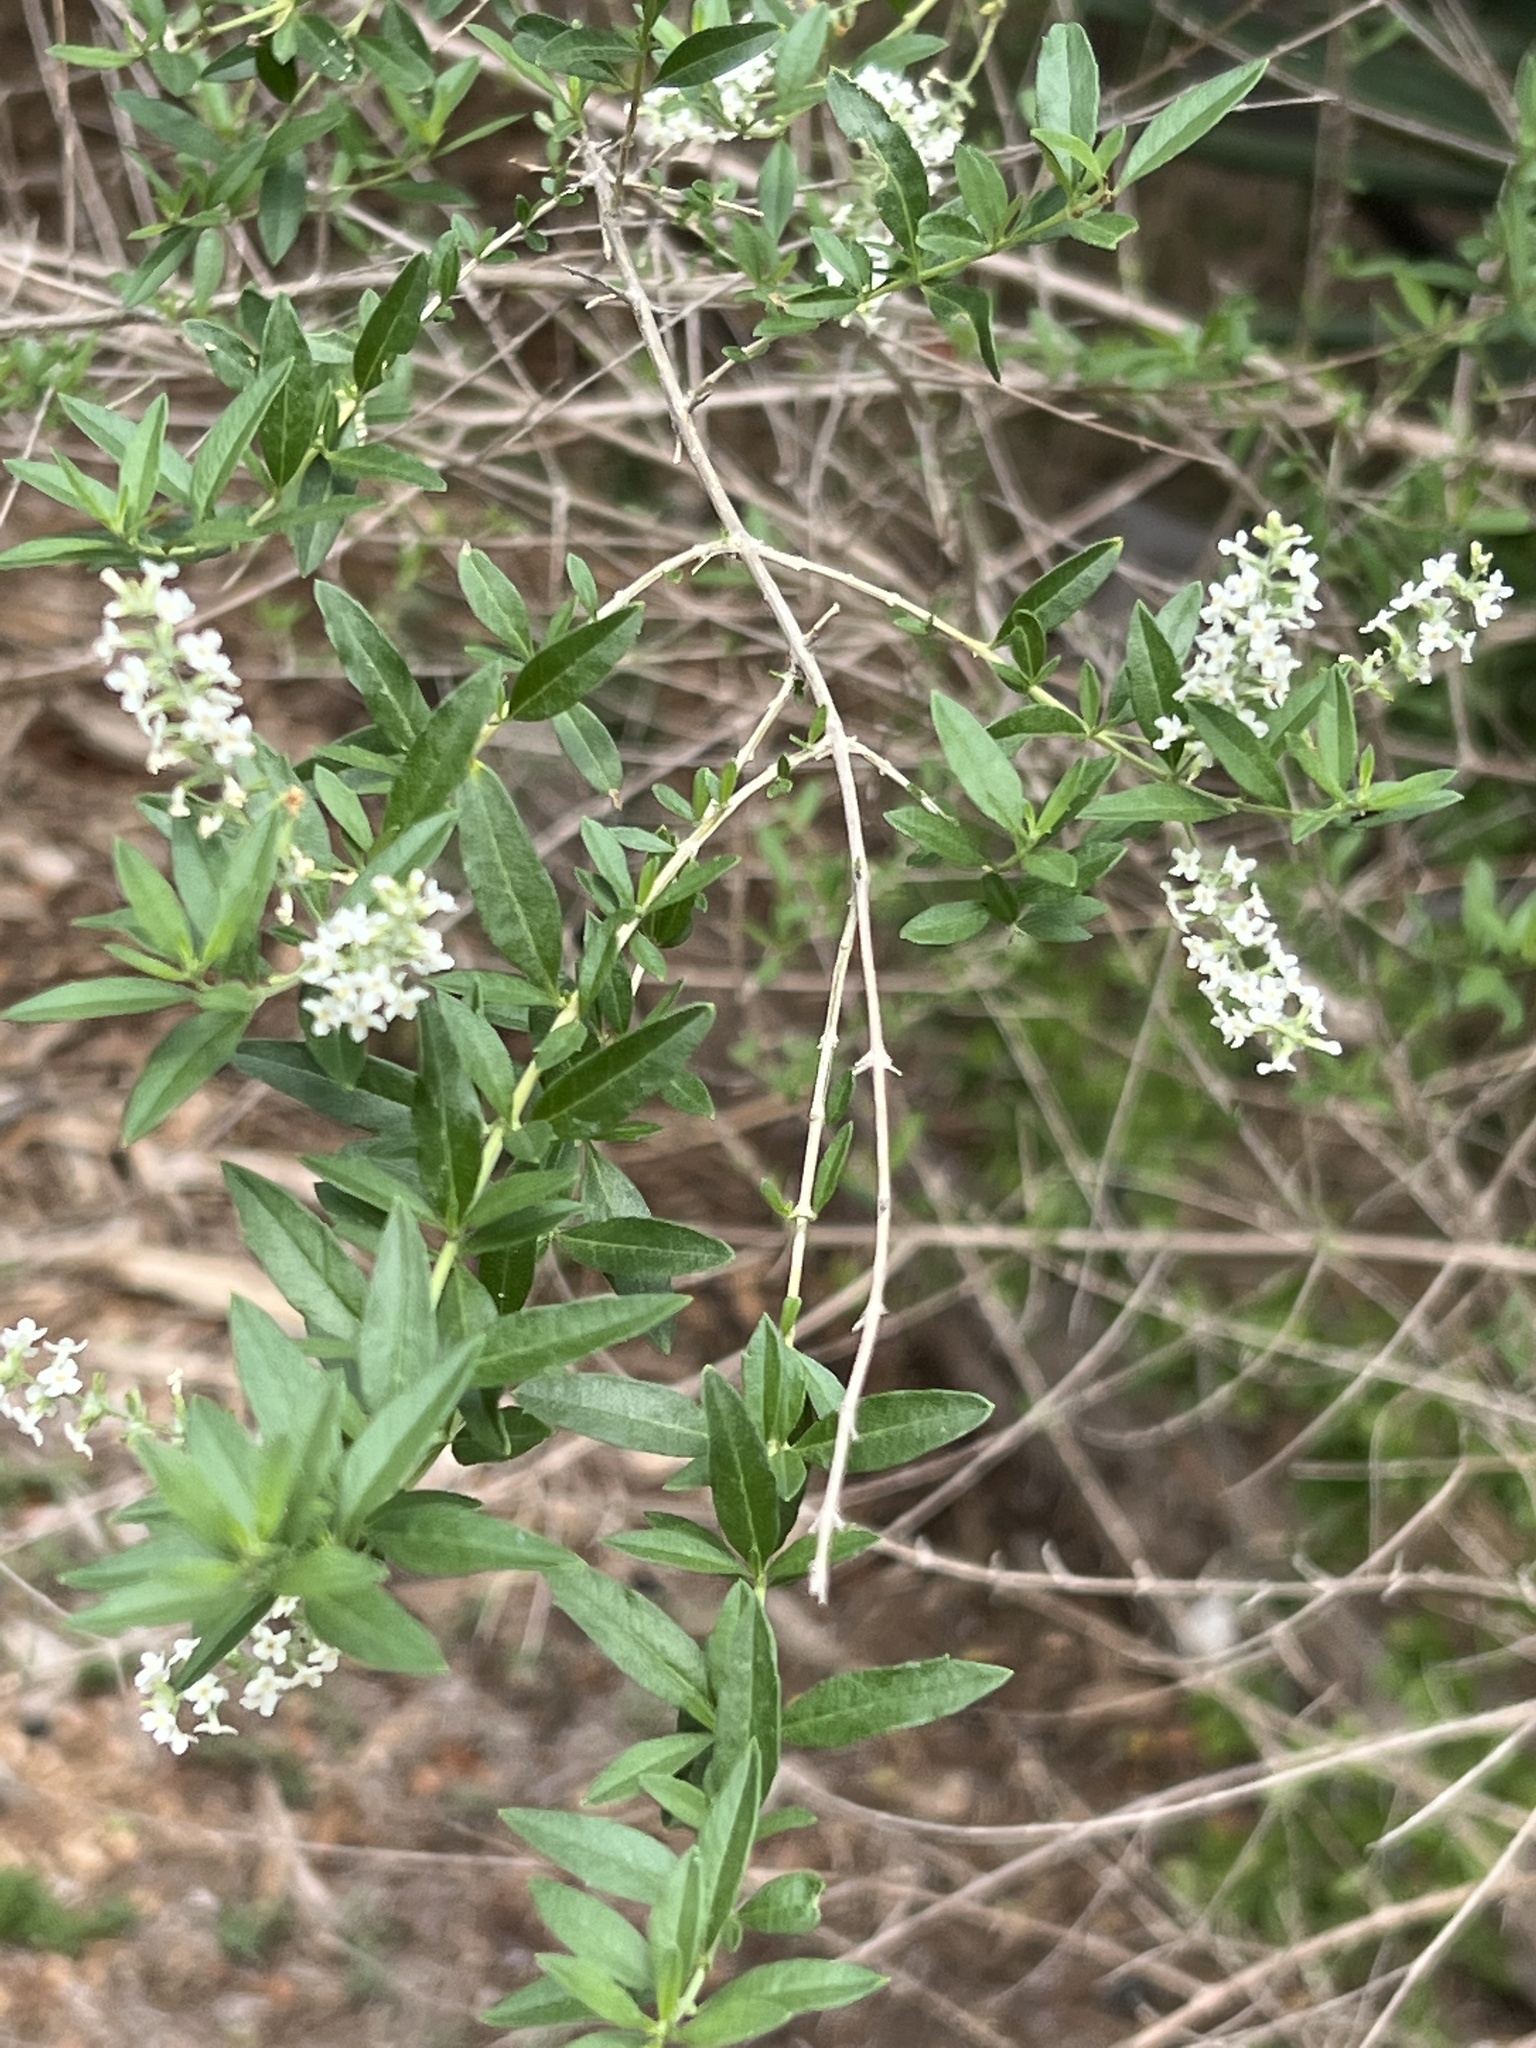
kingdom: Plantae
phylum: Tracheophyta
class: Magnoliopsida
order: Lamiales
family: Verbenaceae
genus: Aloysia
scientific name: Aloysia gratissima
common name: Common bee-brush
